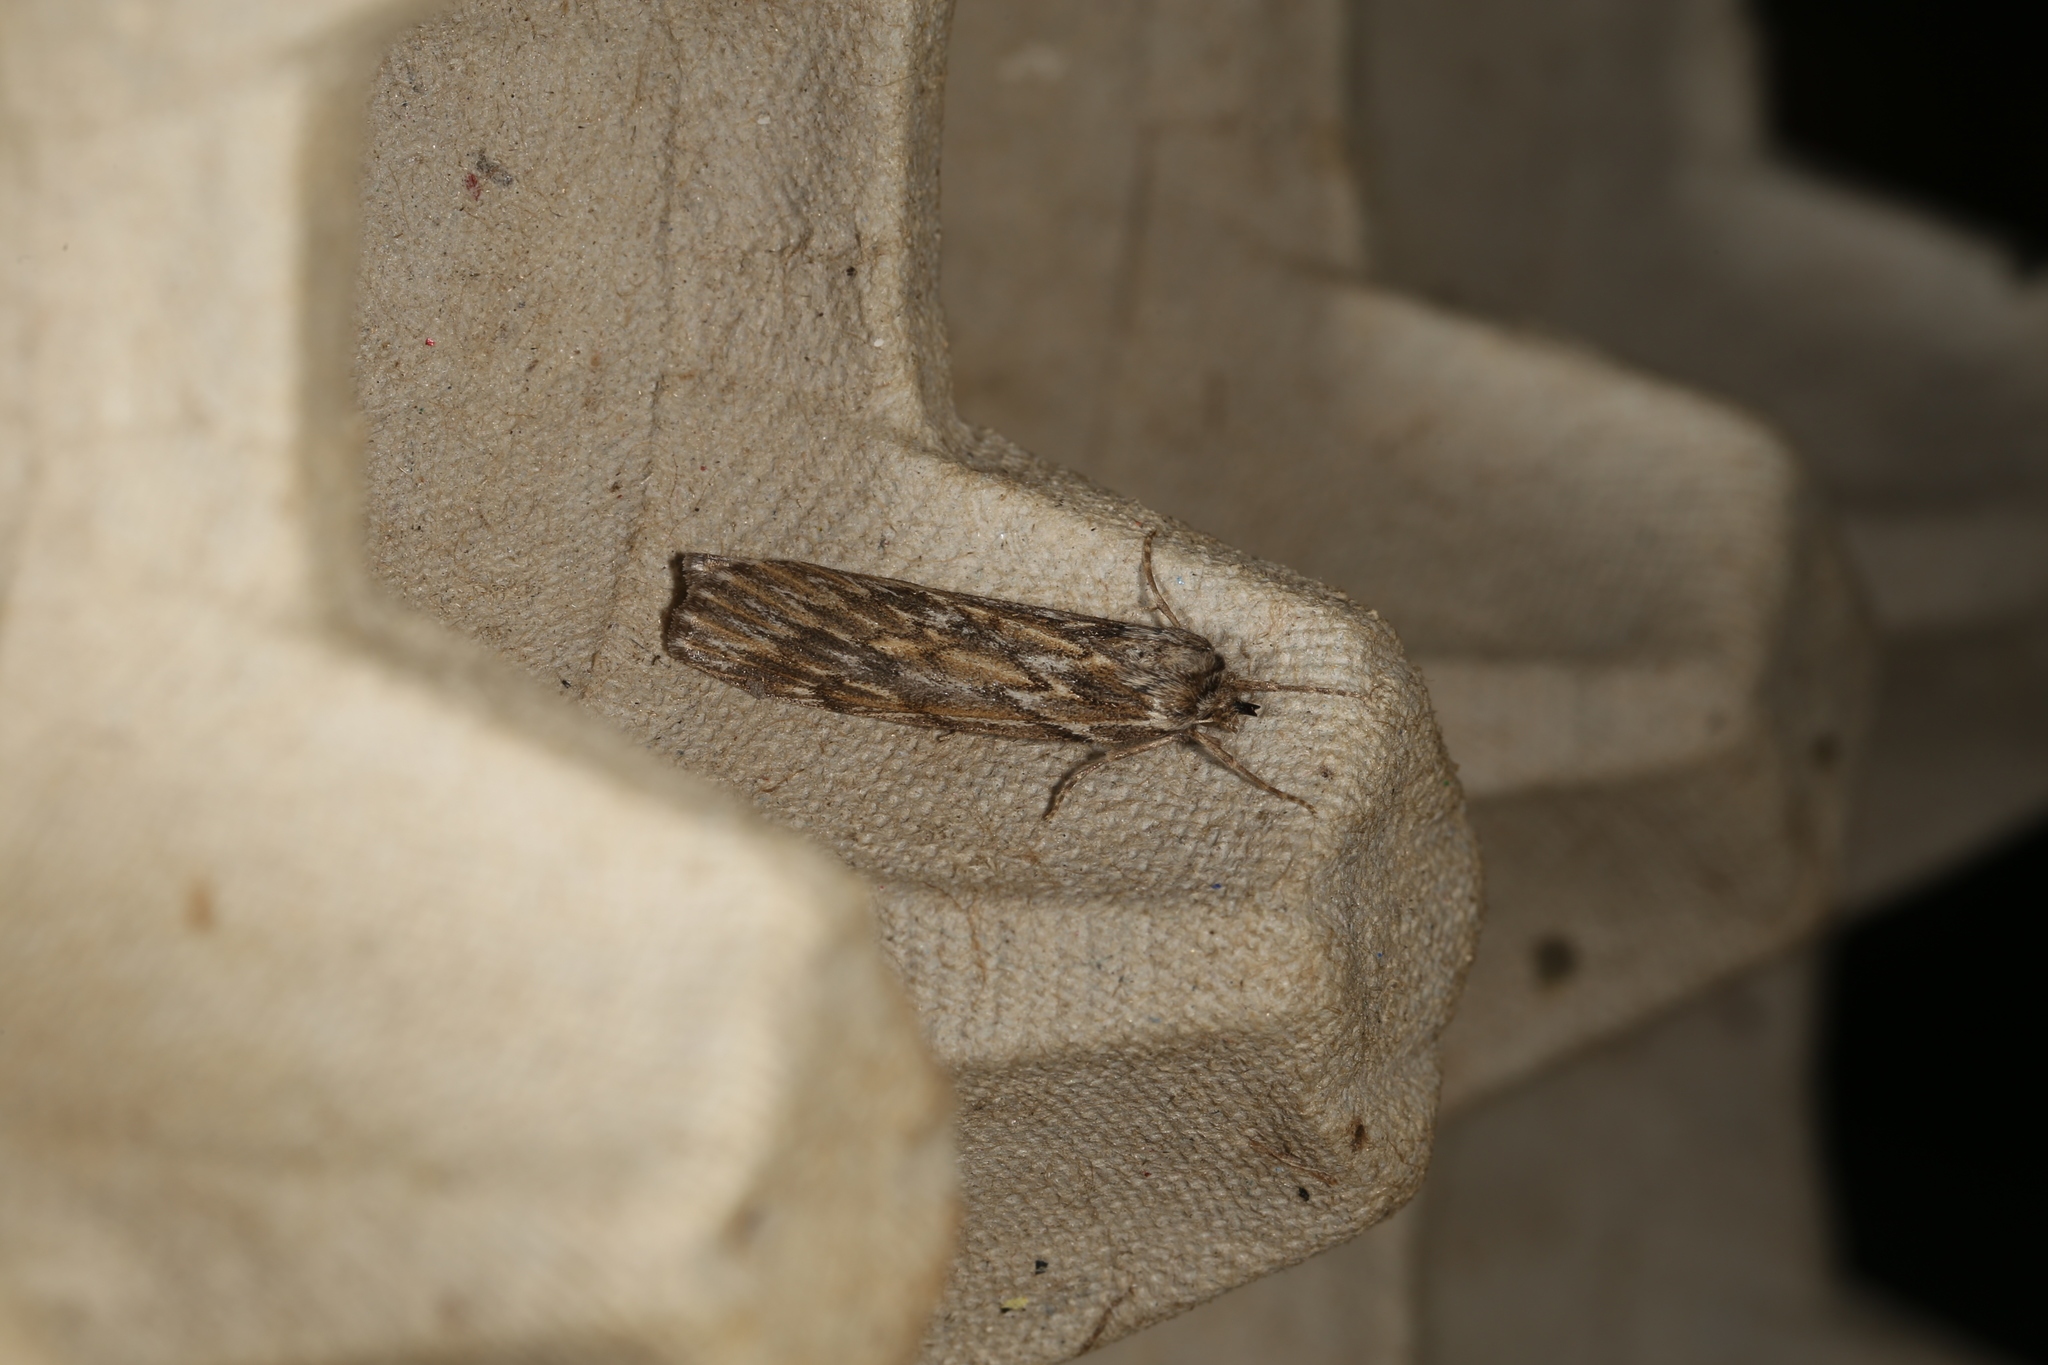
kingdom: Animalia
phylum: Arthropoda
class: Insecta
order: Lepidoptera
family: Geometridae
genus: Ciampa
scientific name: Ciampa arietaria
